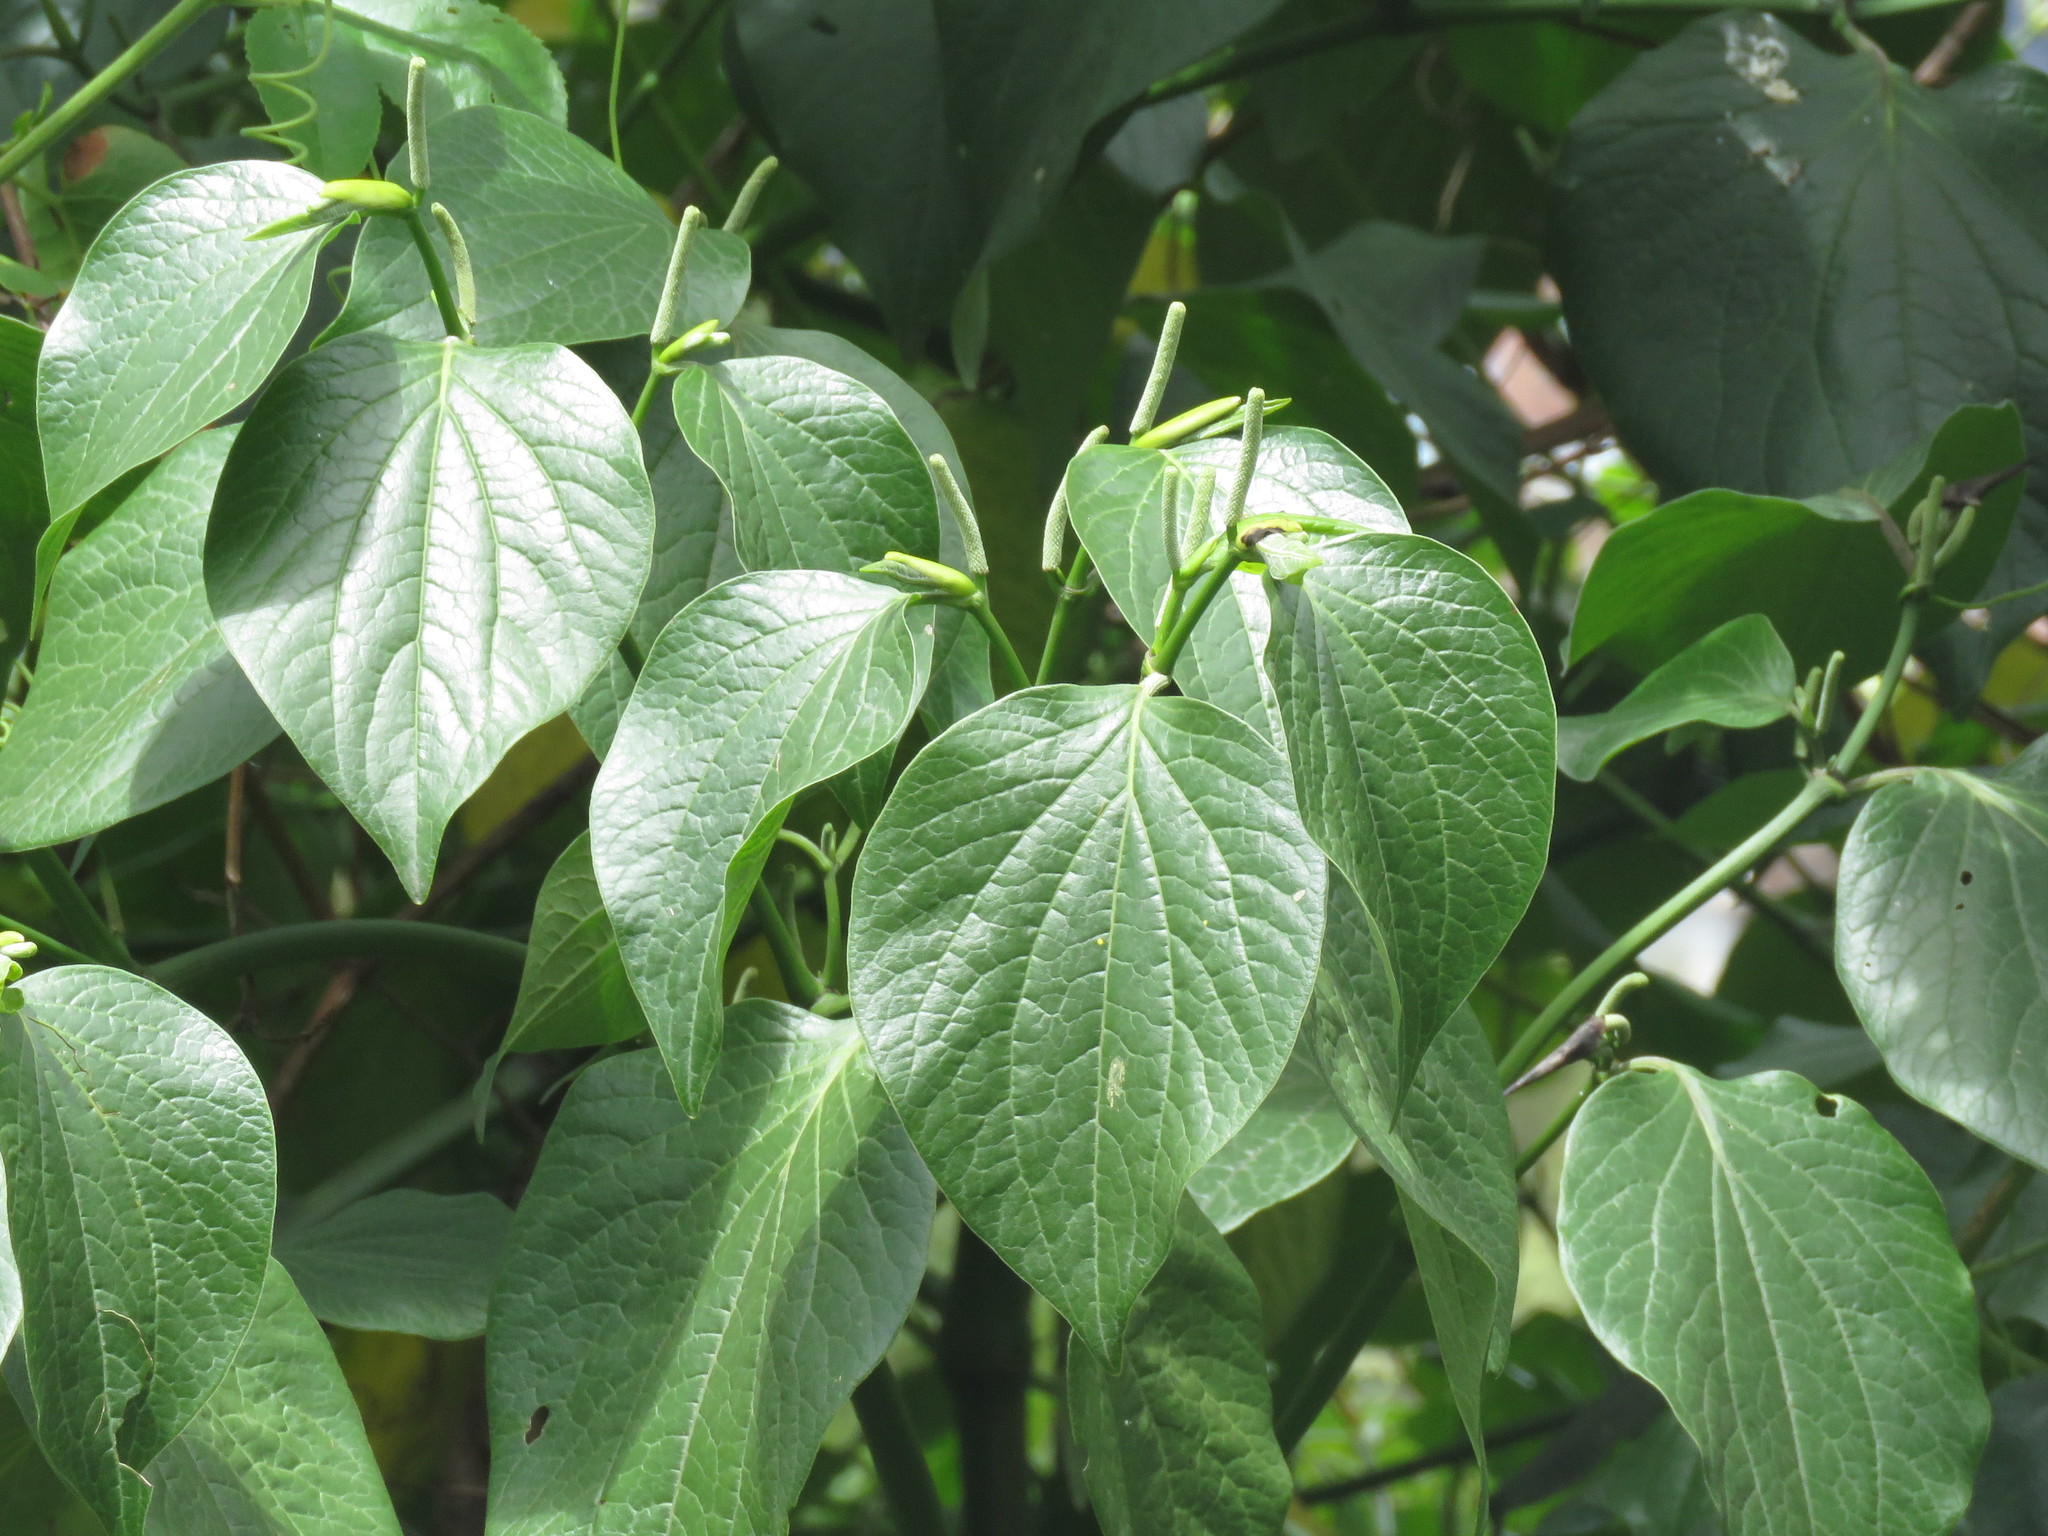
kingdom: Plantae
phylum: Tracheophyta
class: Magnoliopsida
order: Piperales
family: Piperaceae
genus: Piper
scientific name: Piper barbatum
